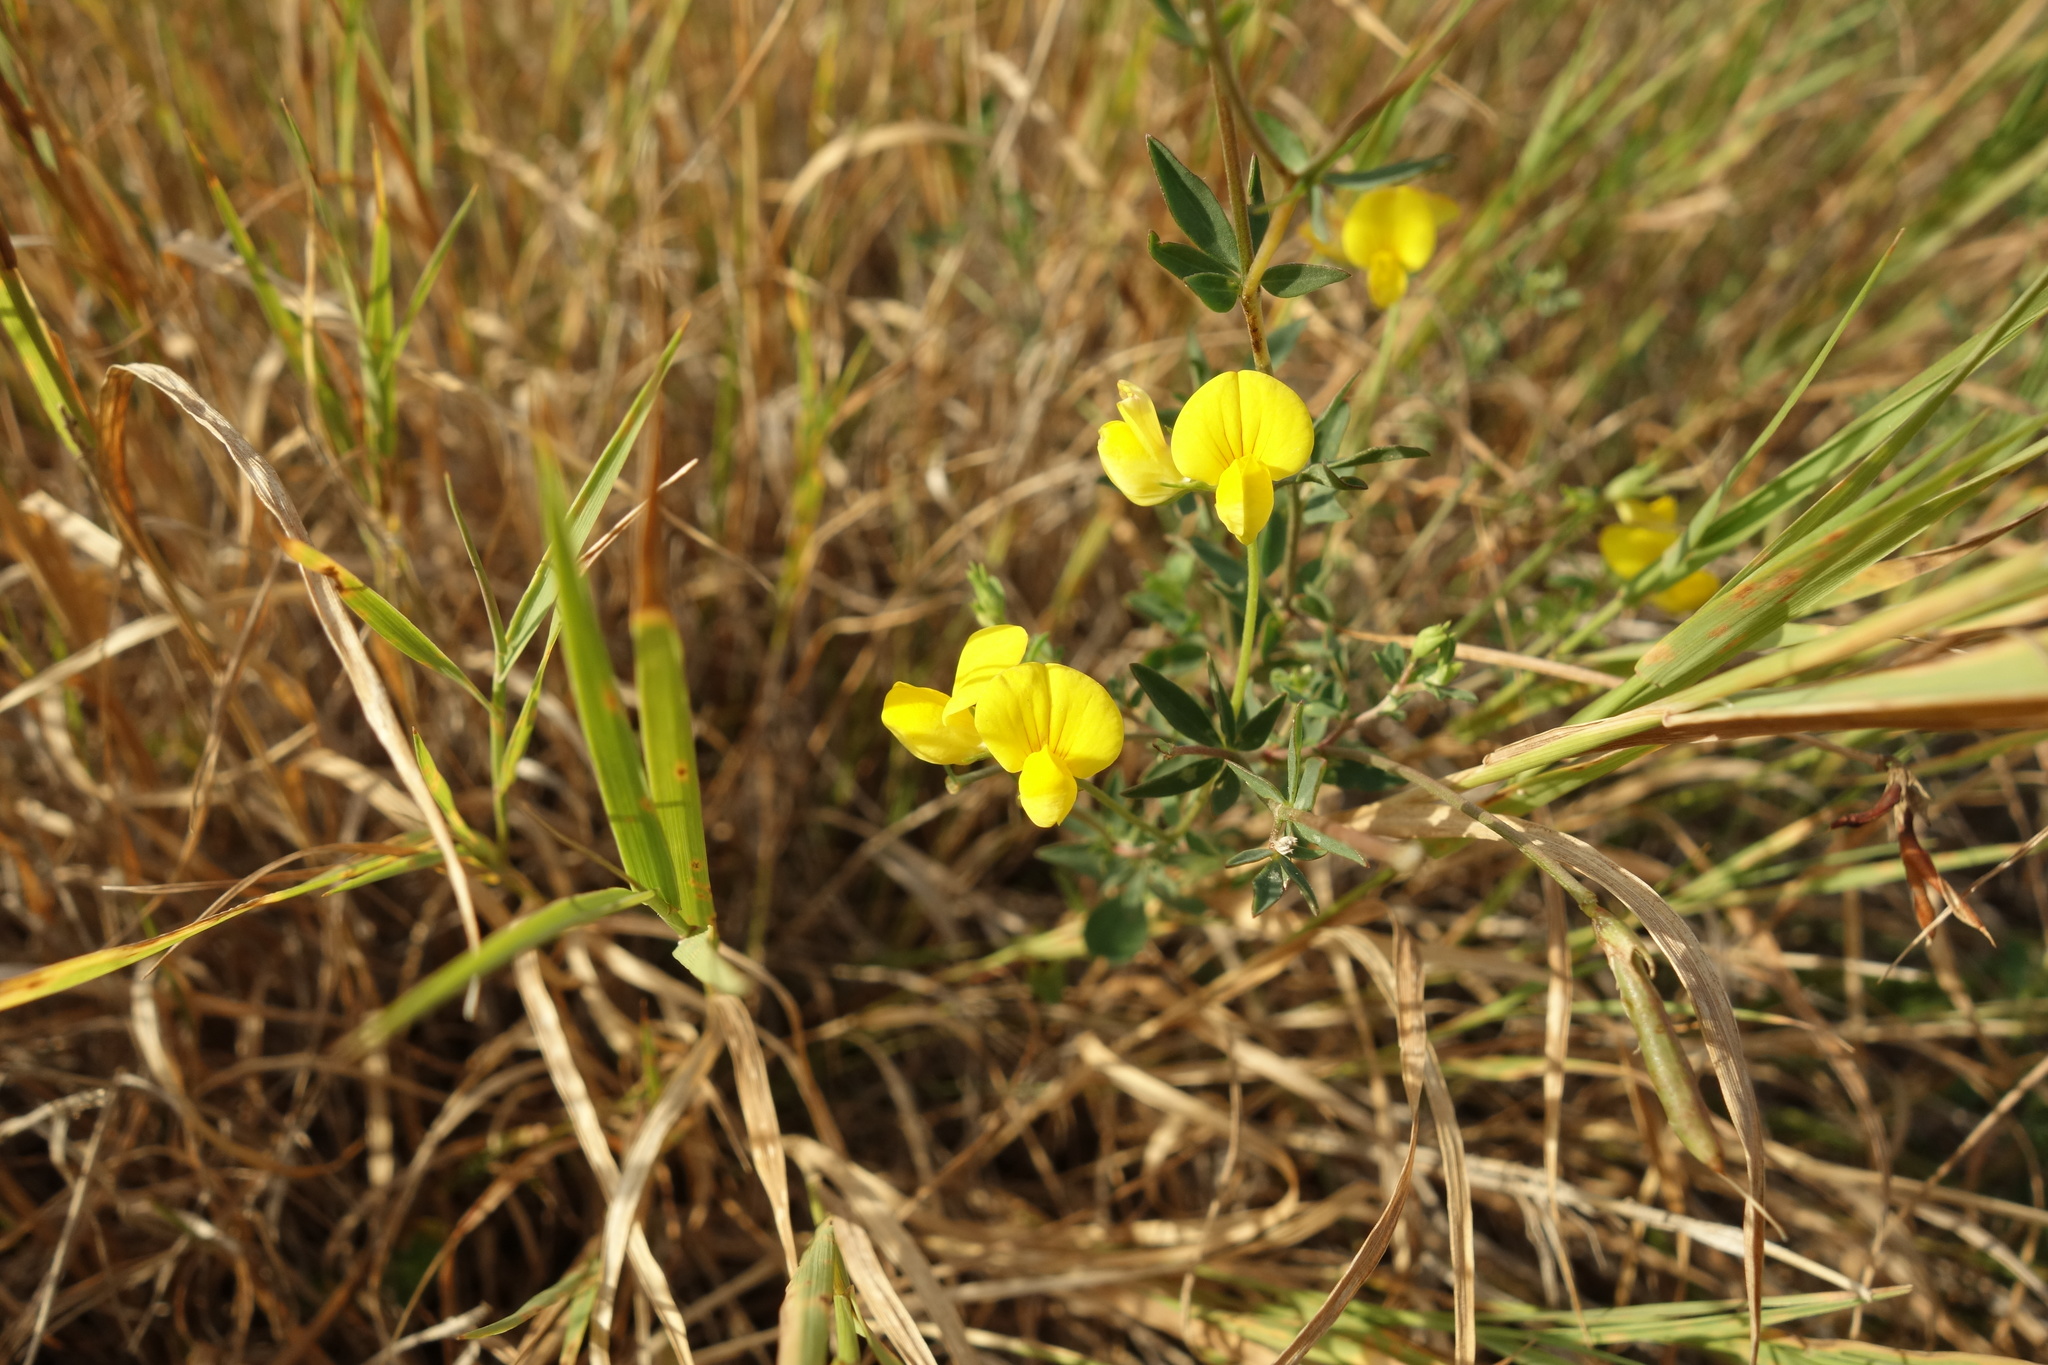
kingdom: Plantae
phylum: Tracheophyta
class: Magnoliopsida
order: Fabales
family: Fabaceae
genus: Lotus
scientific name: Lotus corniculatus
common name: Common bird's-foot-trefoil
